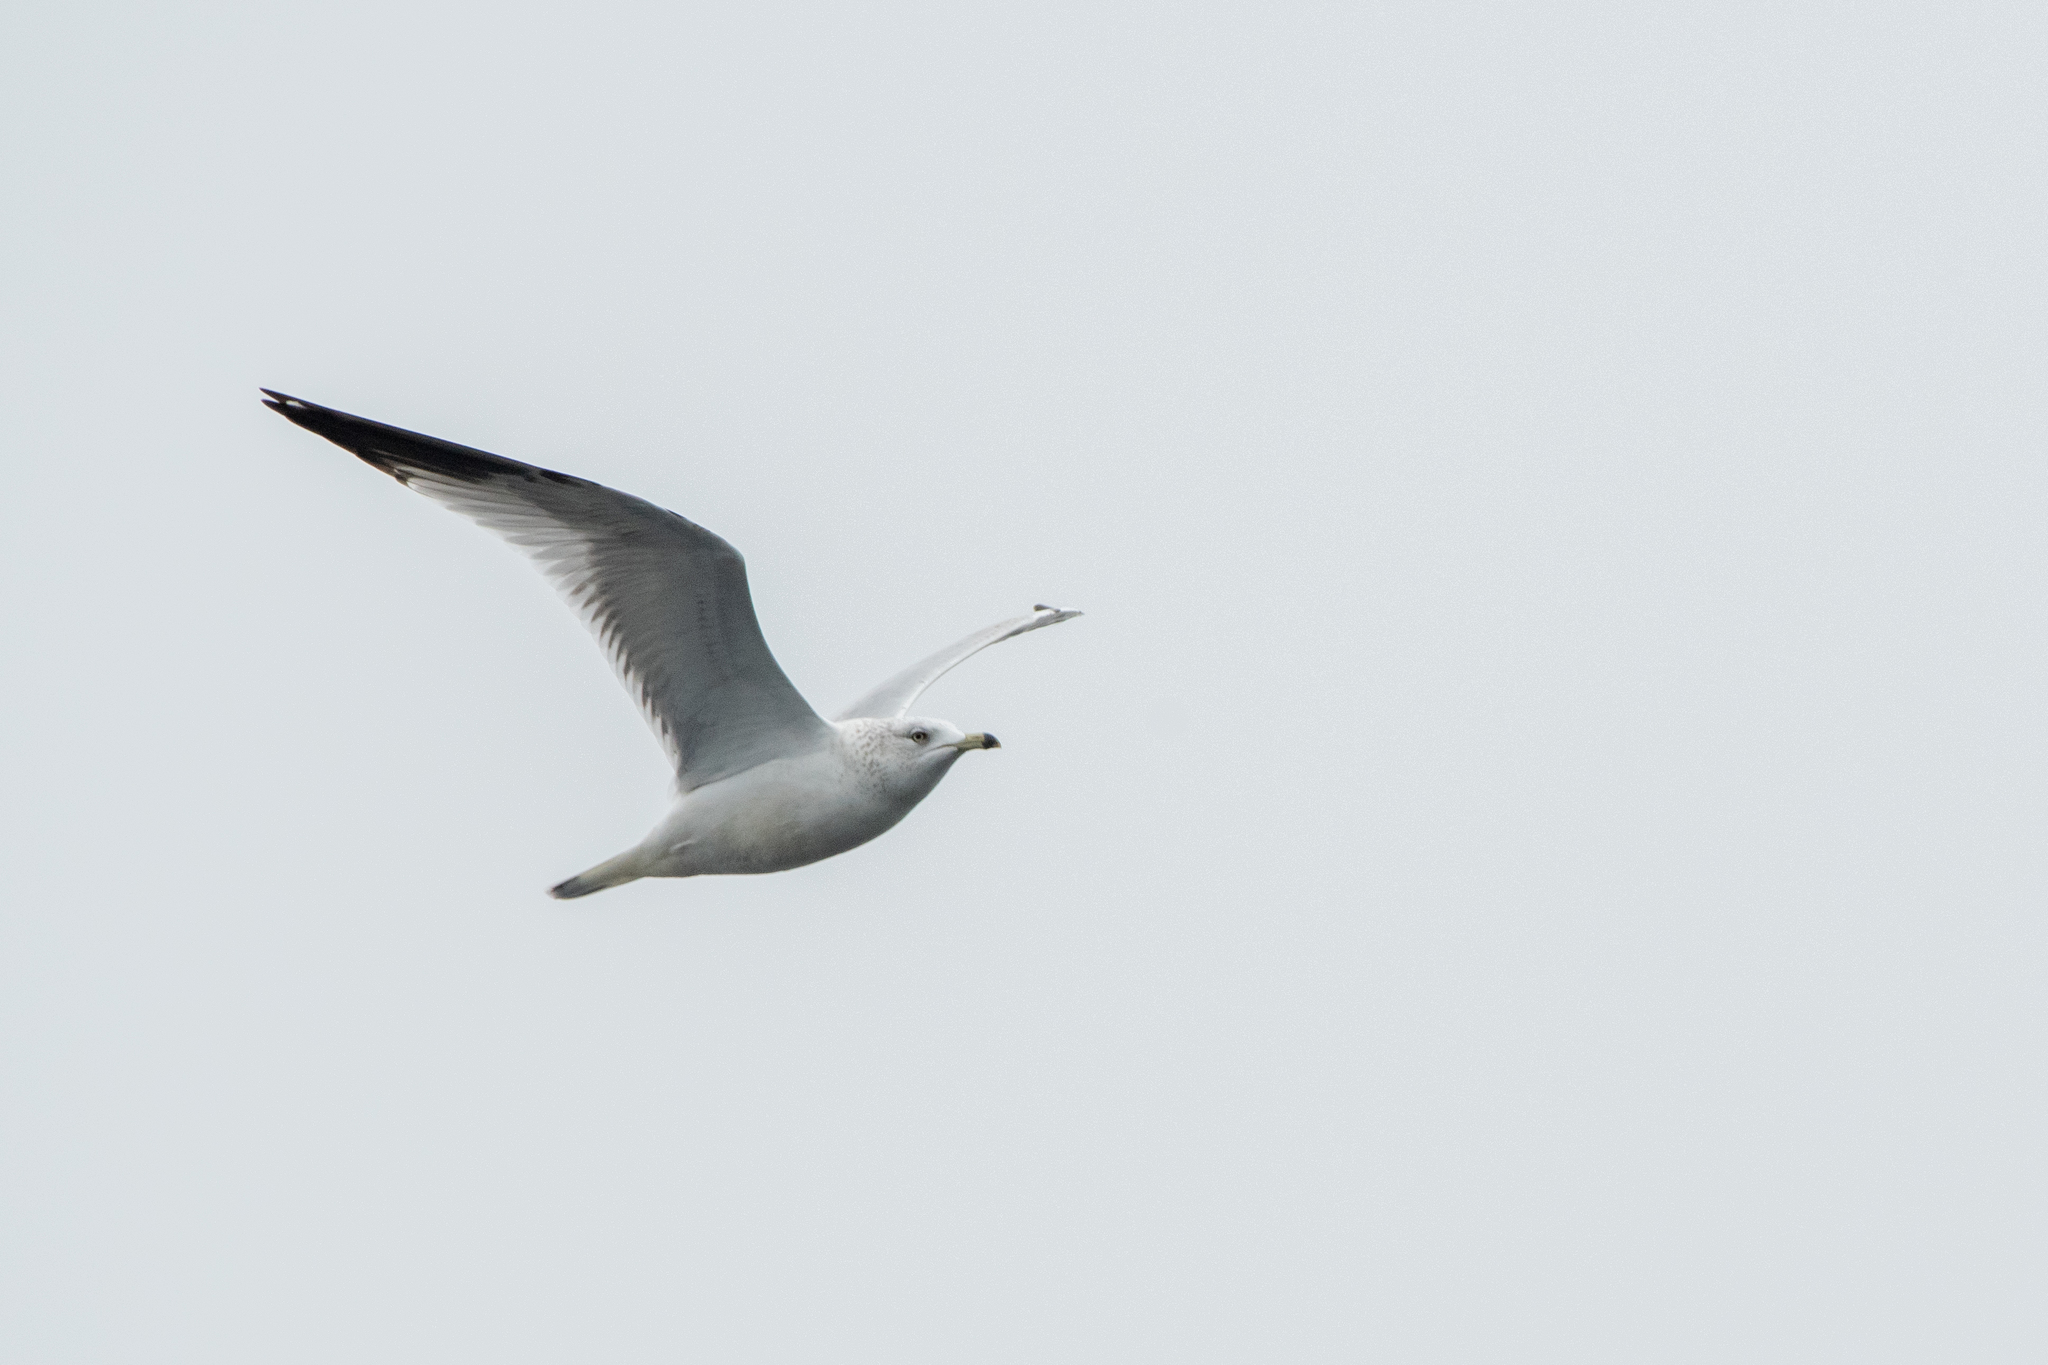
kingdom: Animalia
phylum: Chordata
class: Aves
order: Charadriiformes
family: Laridae
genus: Larus
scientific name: Larus delawarensis
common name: Ring-billed gull
